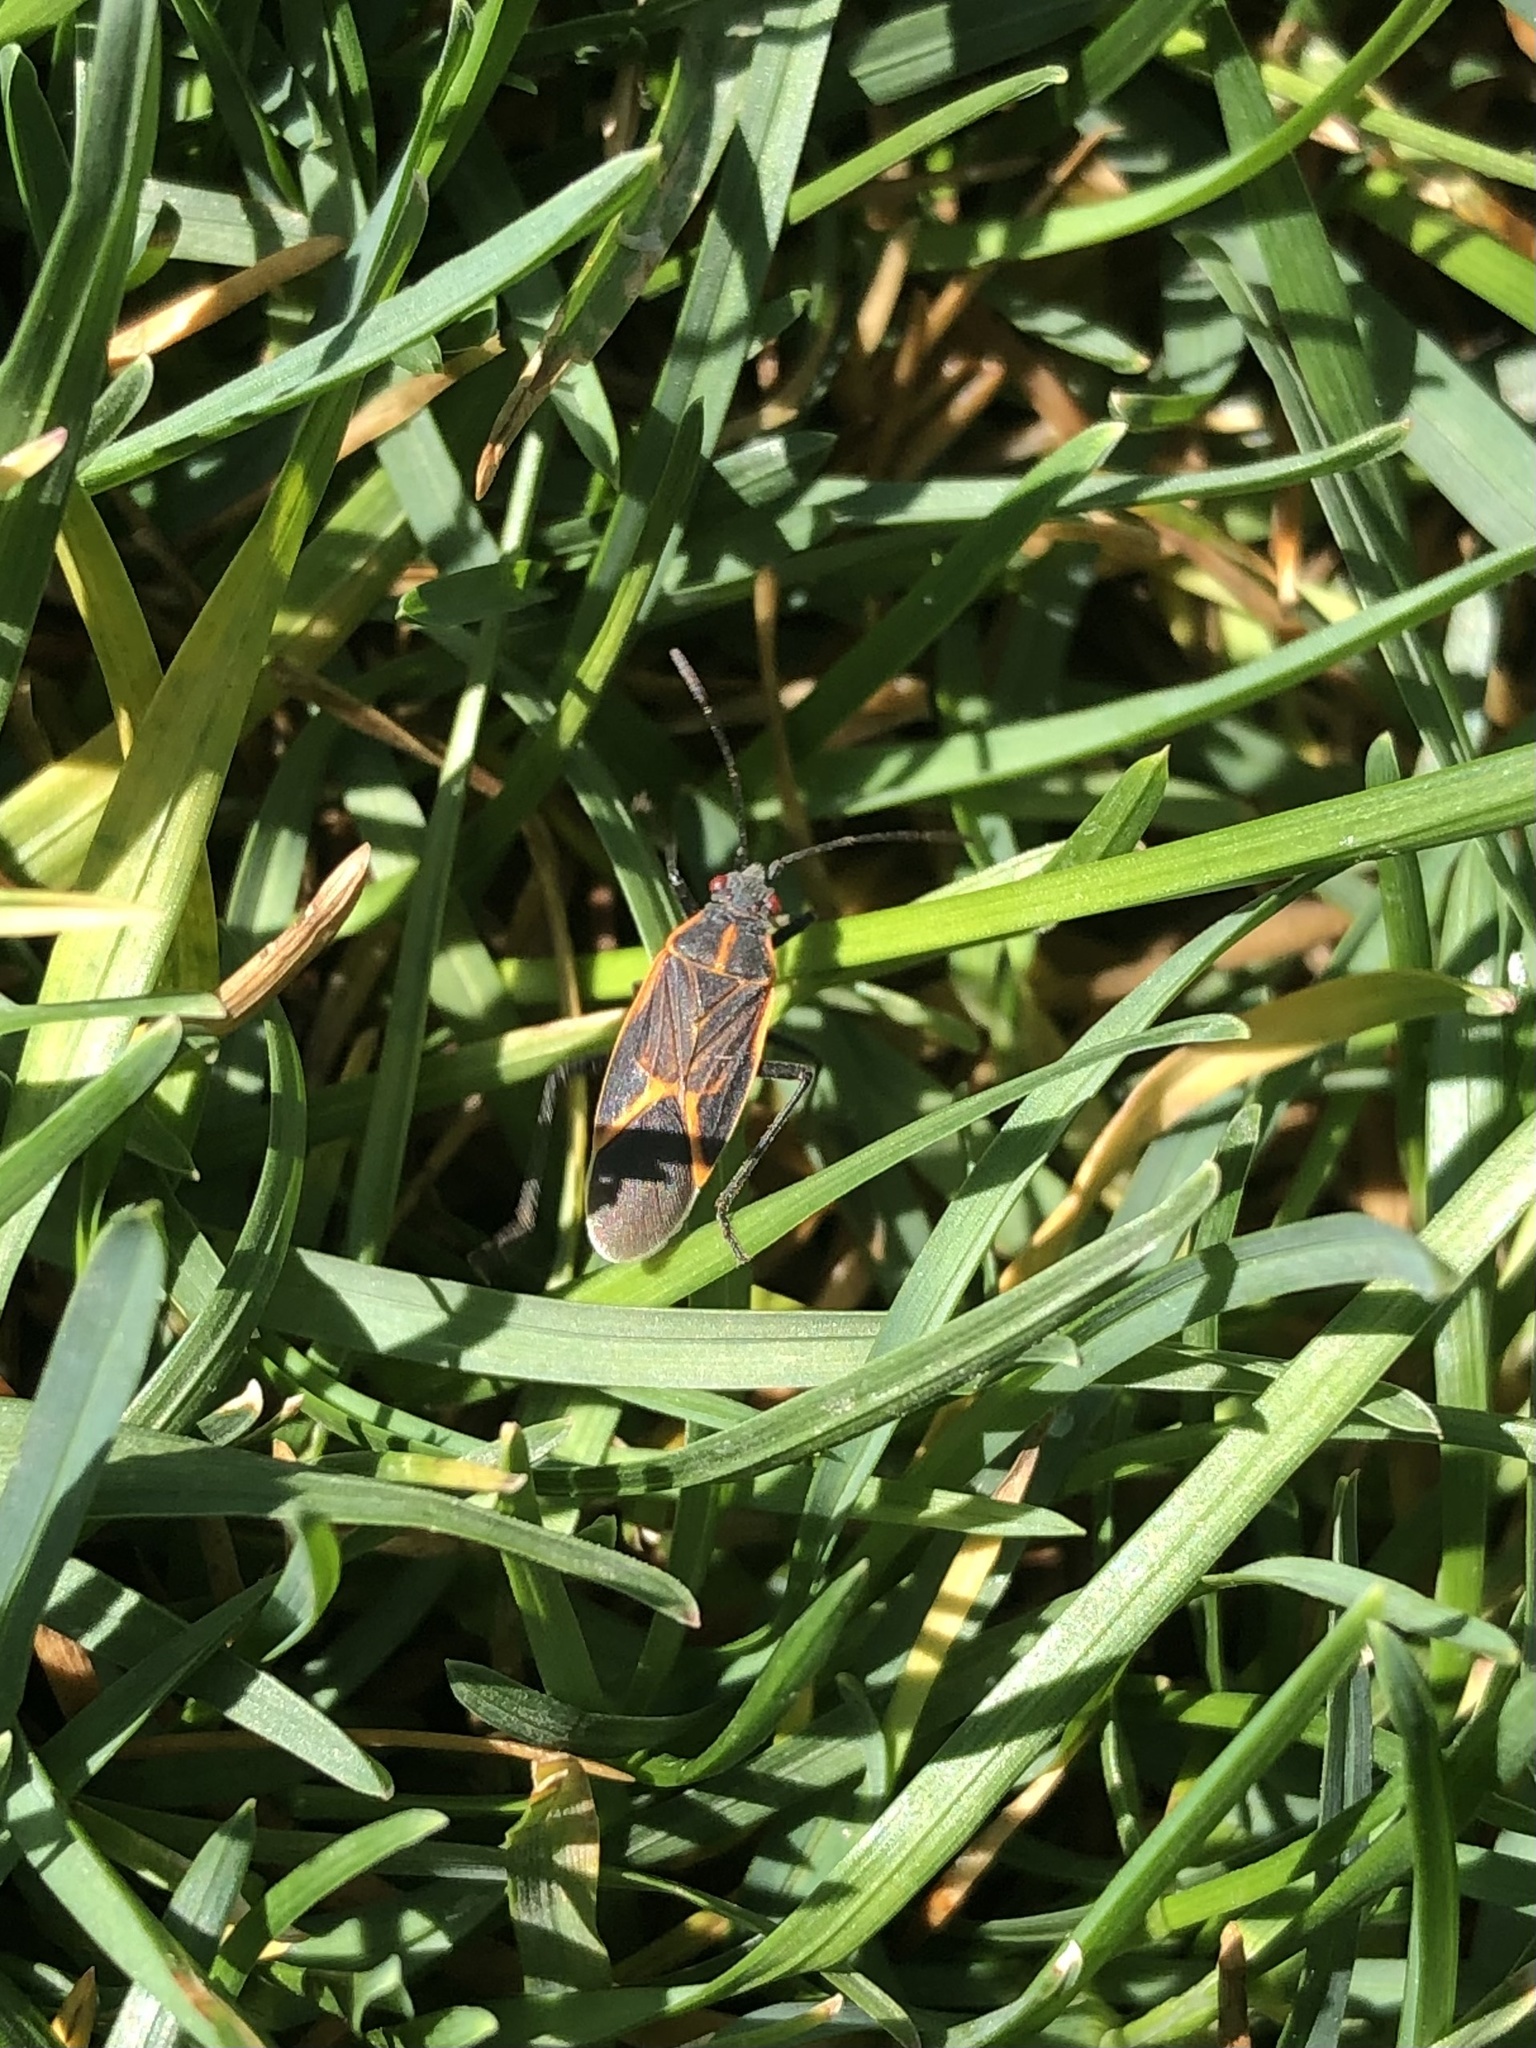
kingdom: Animalia
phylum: Arthropoda
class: Insecta
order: Hemiptera
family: Rhopalidae
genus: Boisea
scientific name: Boisea trivittata
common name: Boxelder bug
